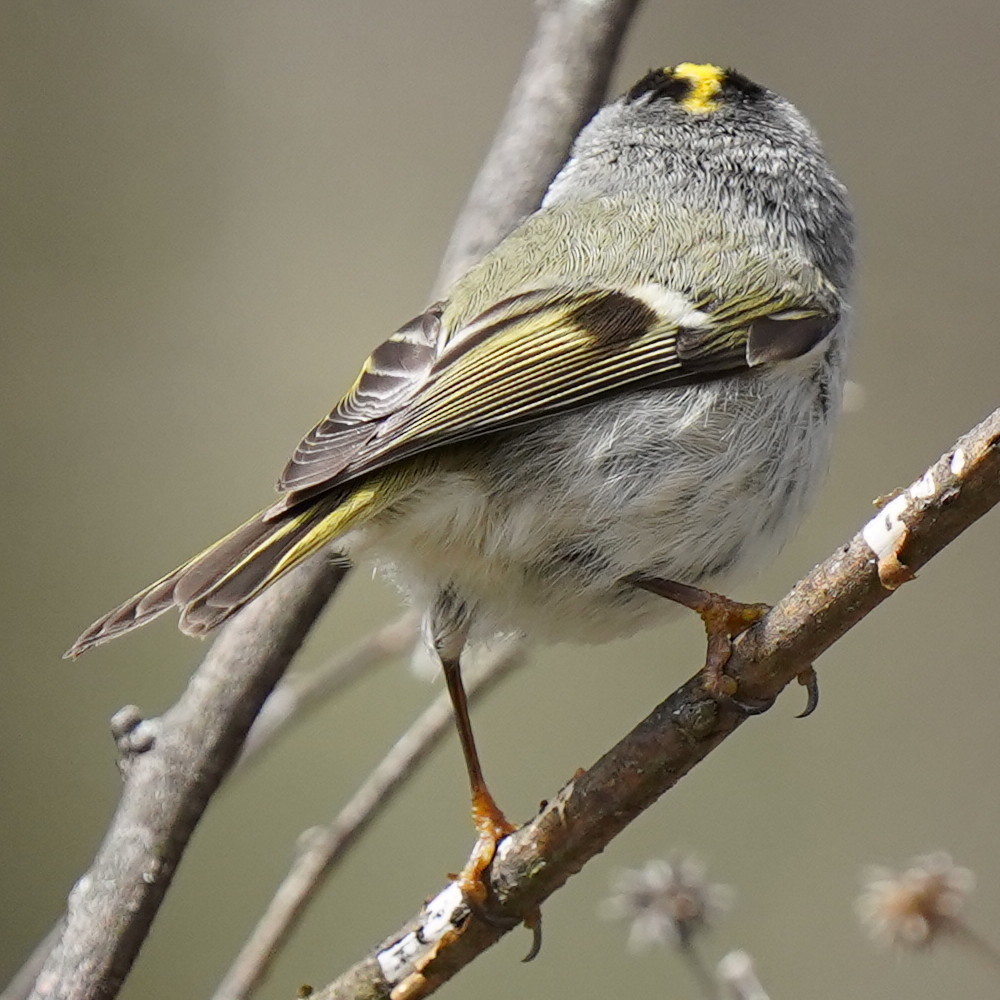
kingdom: Animalia
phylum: Chordata
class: Aves
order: Passeriformes
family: Regulidae
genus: Regulus
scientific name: Regulus satrapa
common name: Golden-crowned kinglet
